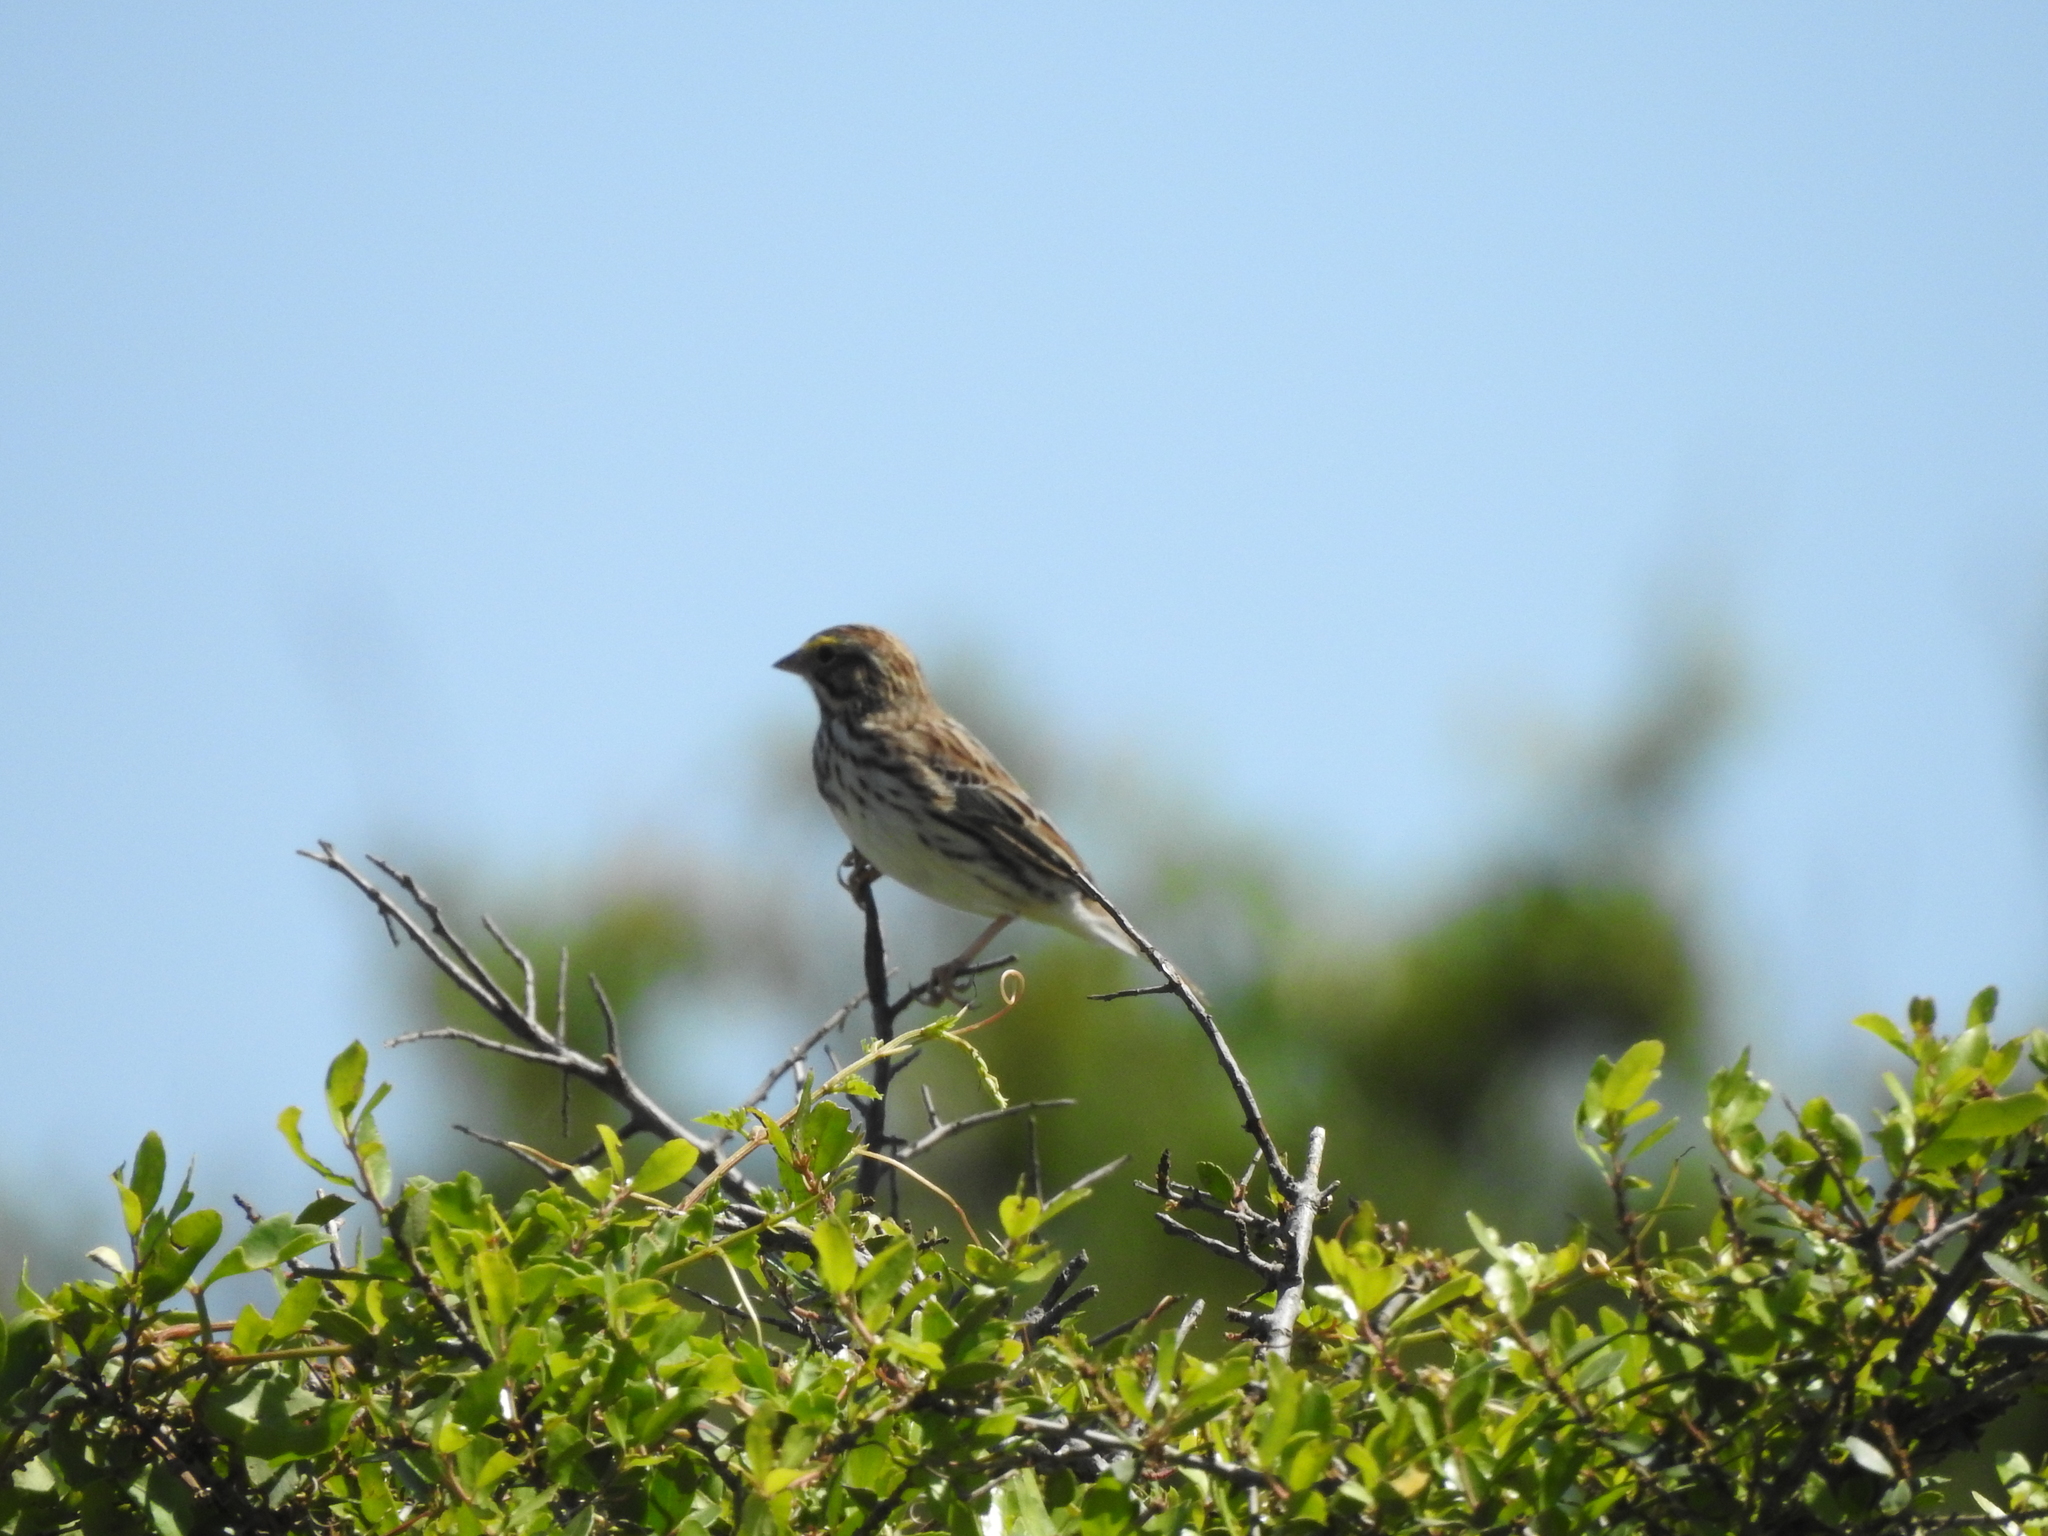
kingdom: Animalia
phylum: Chordata
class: Aves
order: Passeriformes
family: Passerellidae
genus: Passerculus
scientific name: Passerculus sandwichensis
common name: Savannah sparrow
